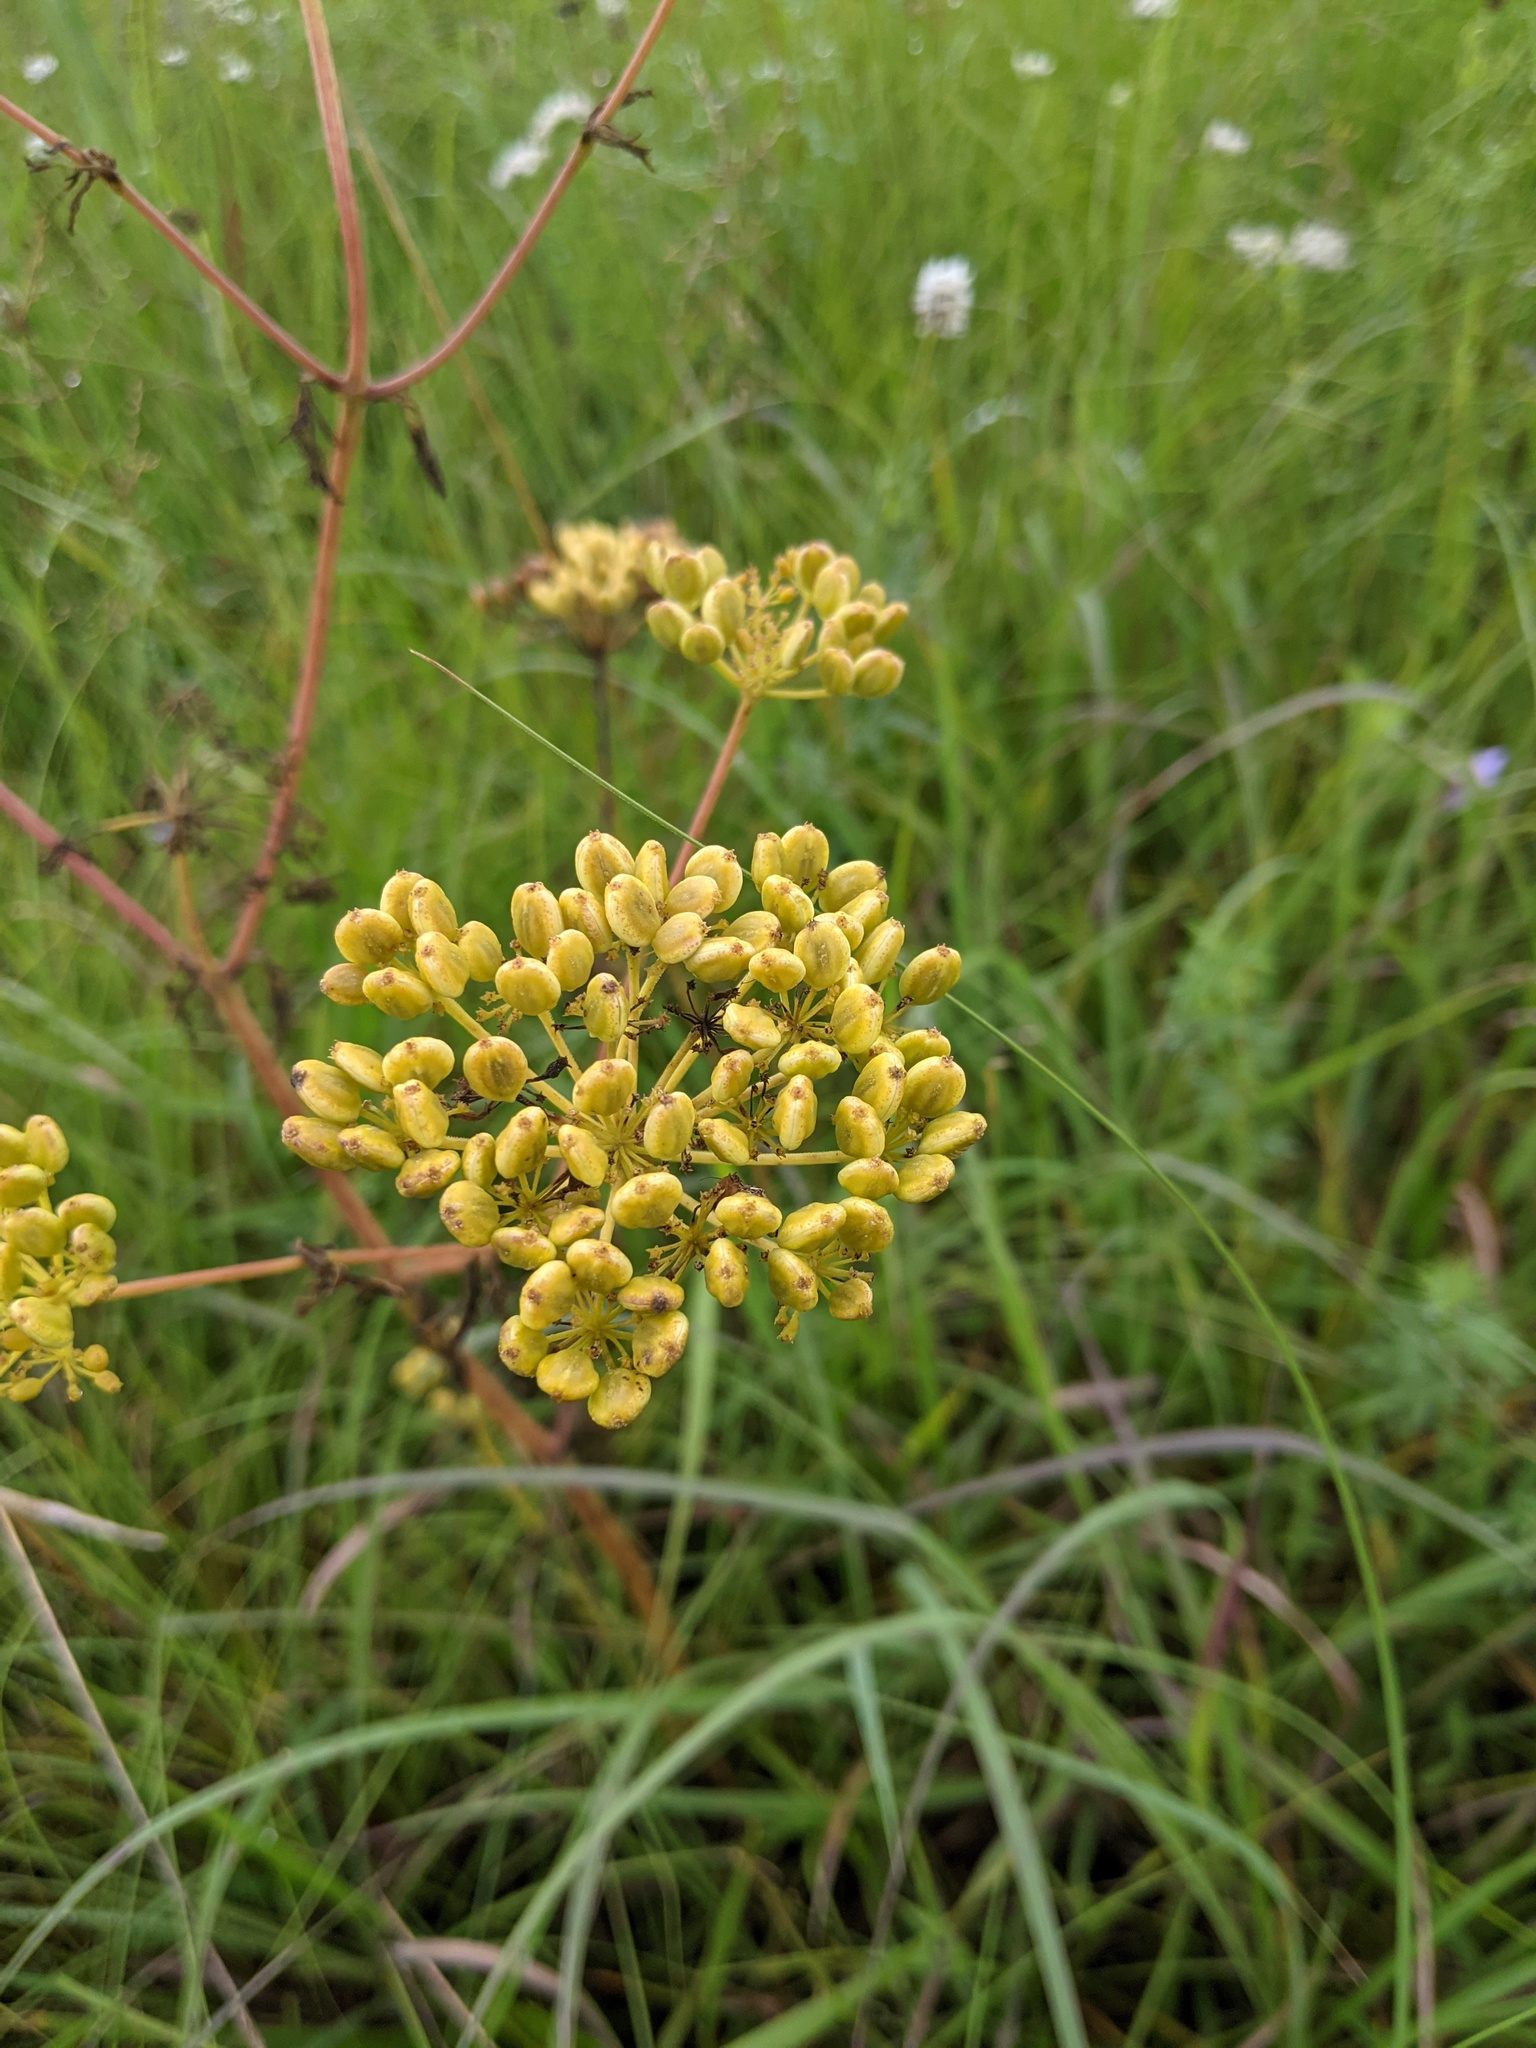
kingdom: Plantae
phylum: Tracheophyta
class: Magnoliopsida
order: Apiales
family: Apiaceae
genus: Polytaenia
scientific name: Polytaenia nuttallii
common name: Prairie-parsley
